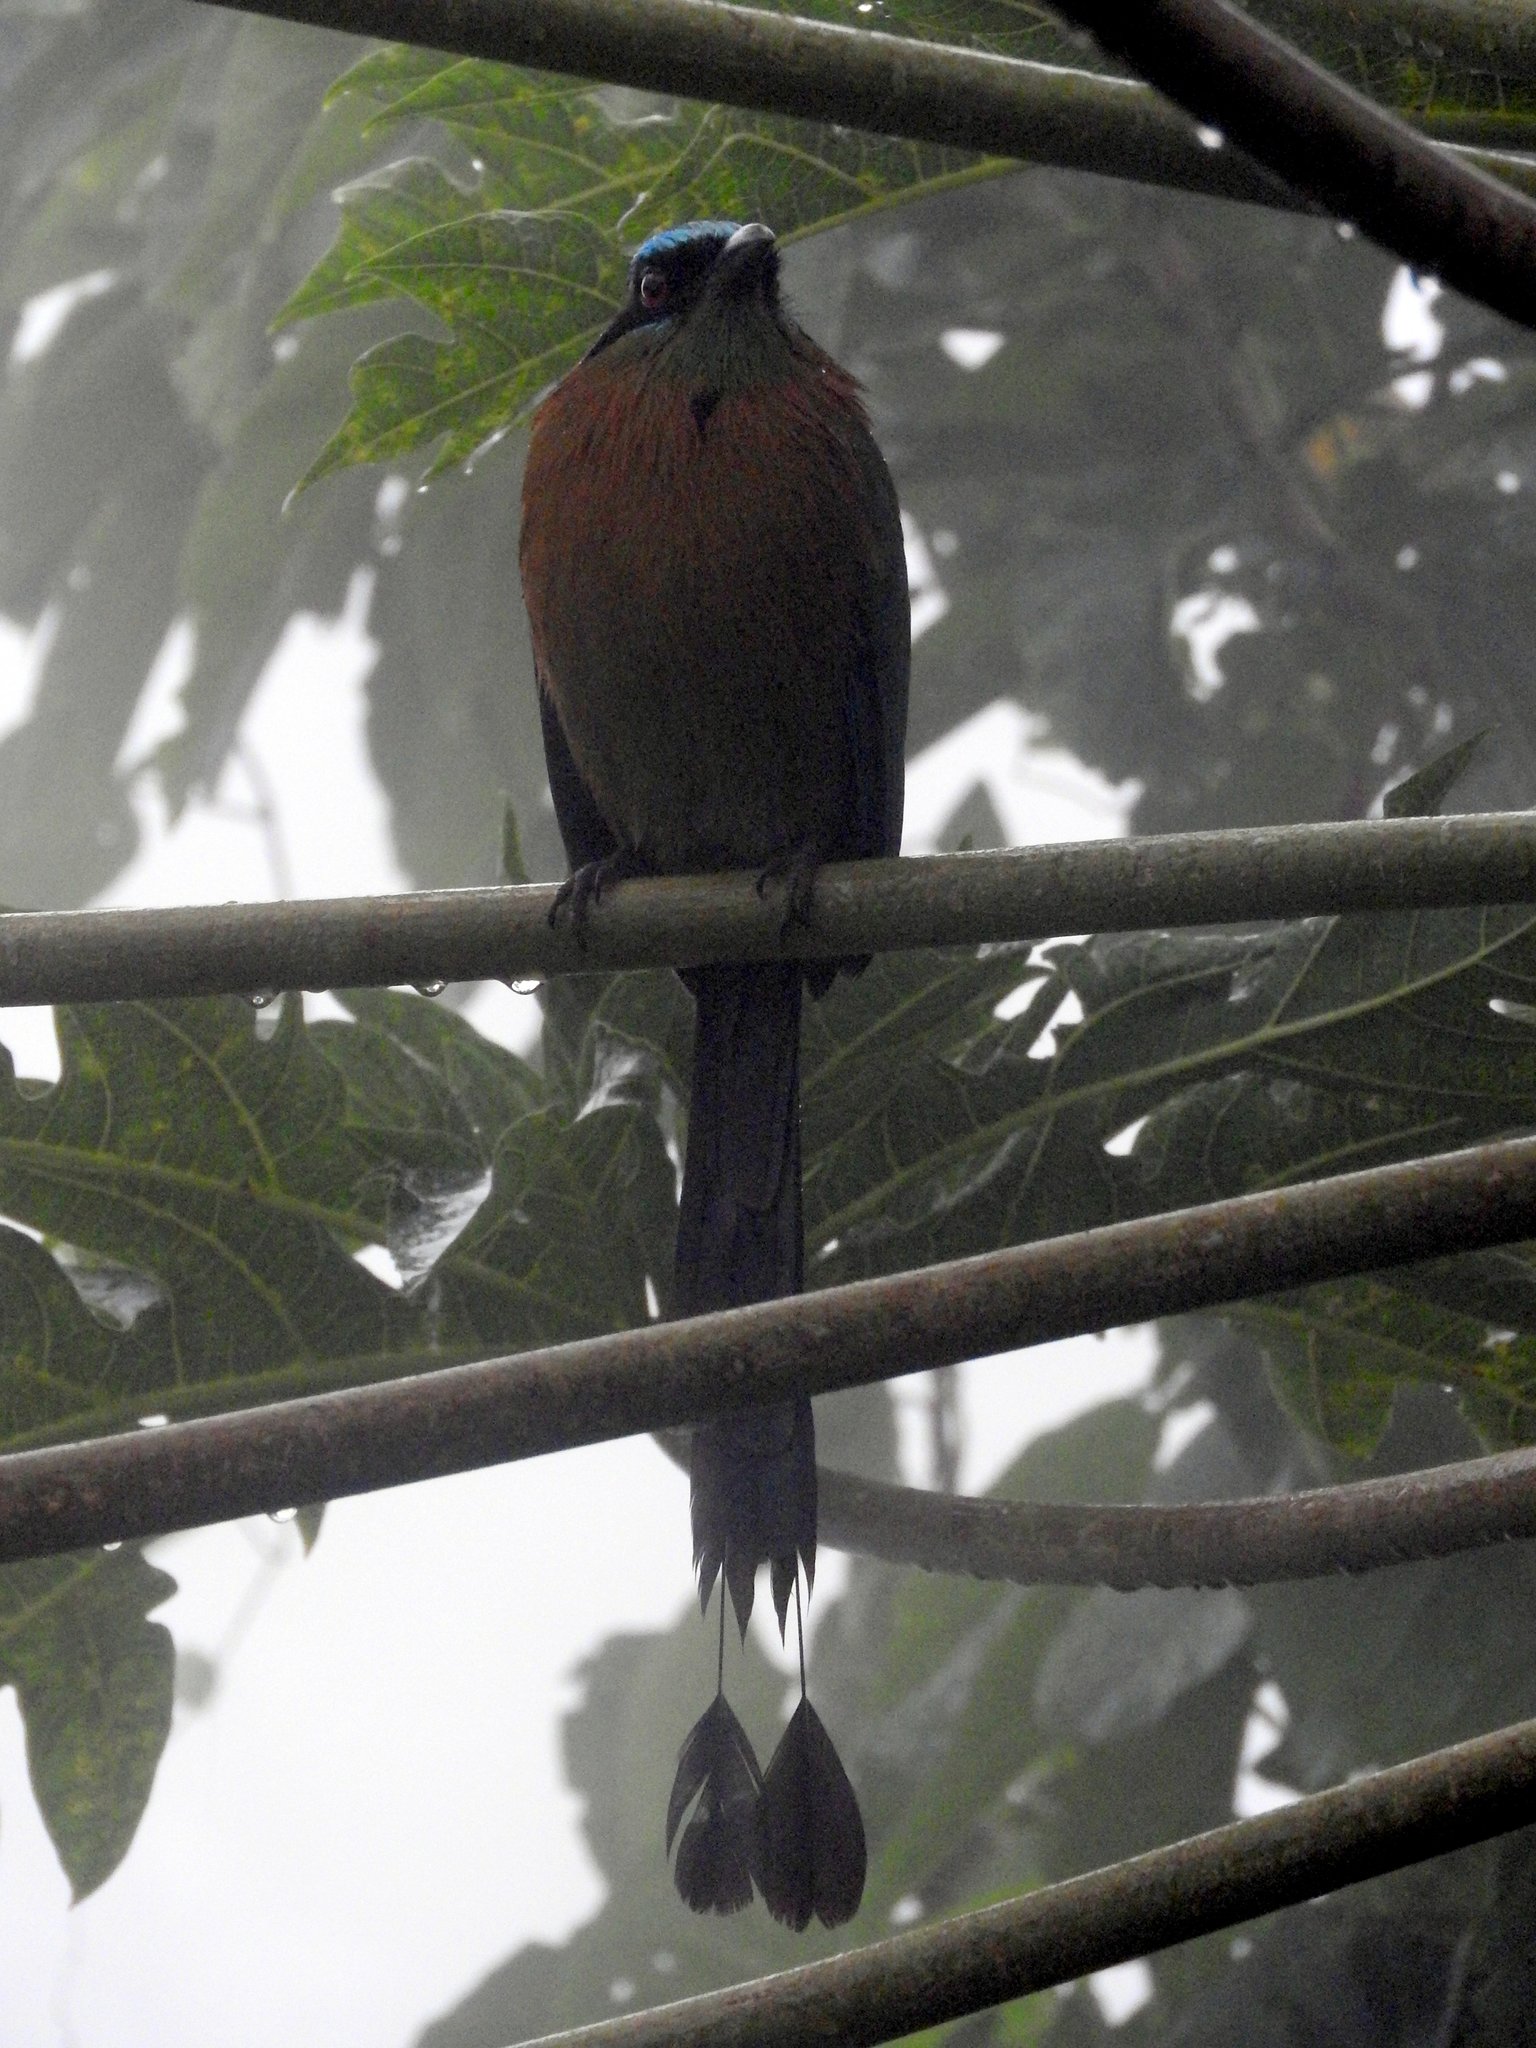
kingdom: Animalia
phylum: Chordata
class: Aves
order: Coraciiformes
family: Momotidae
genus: Momotus
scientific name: Momotus lessonii
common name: Lesson's motmot
